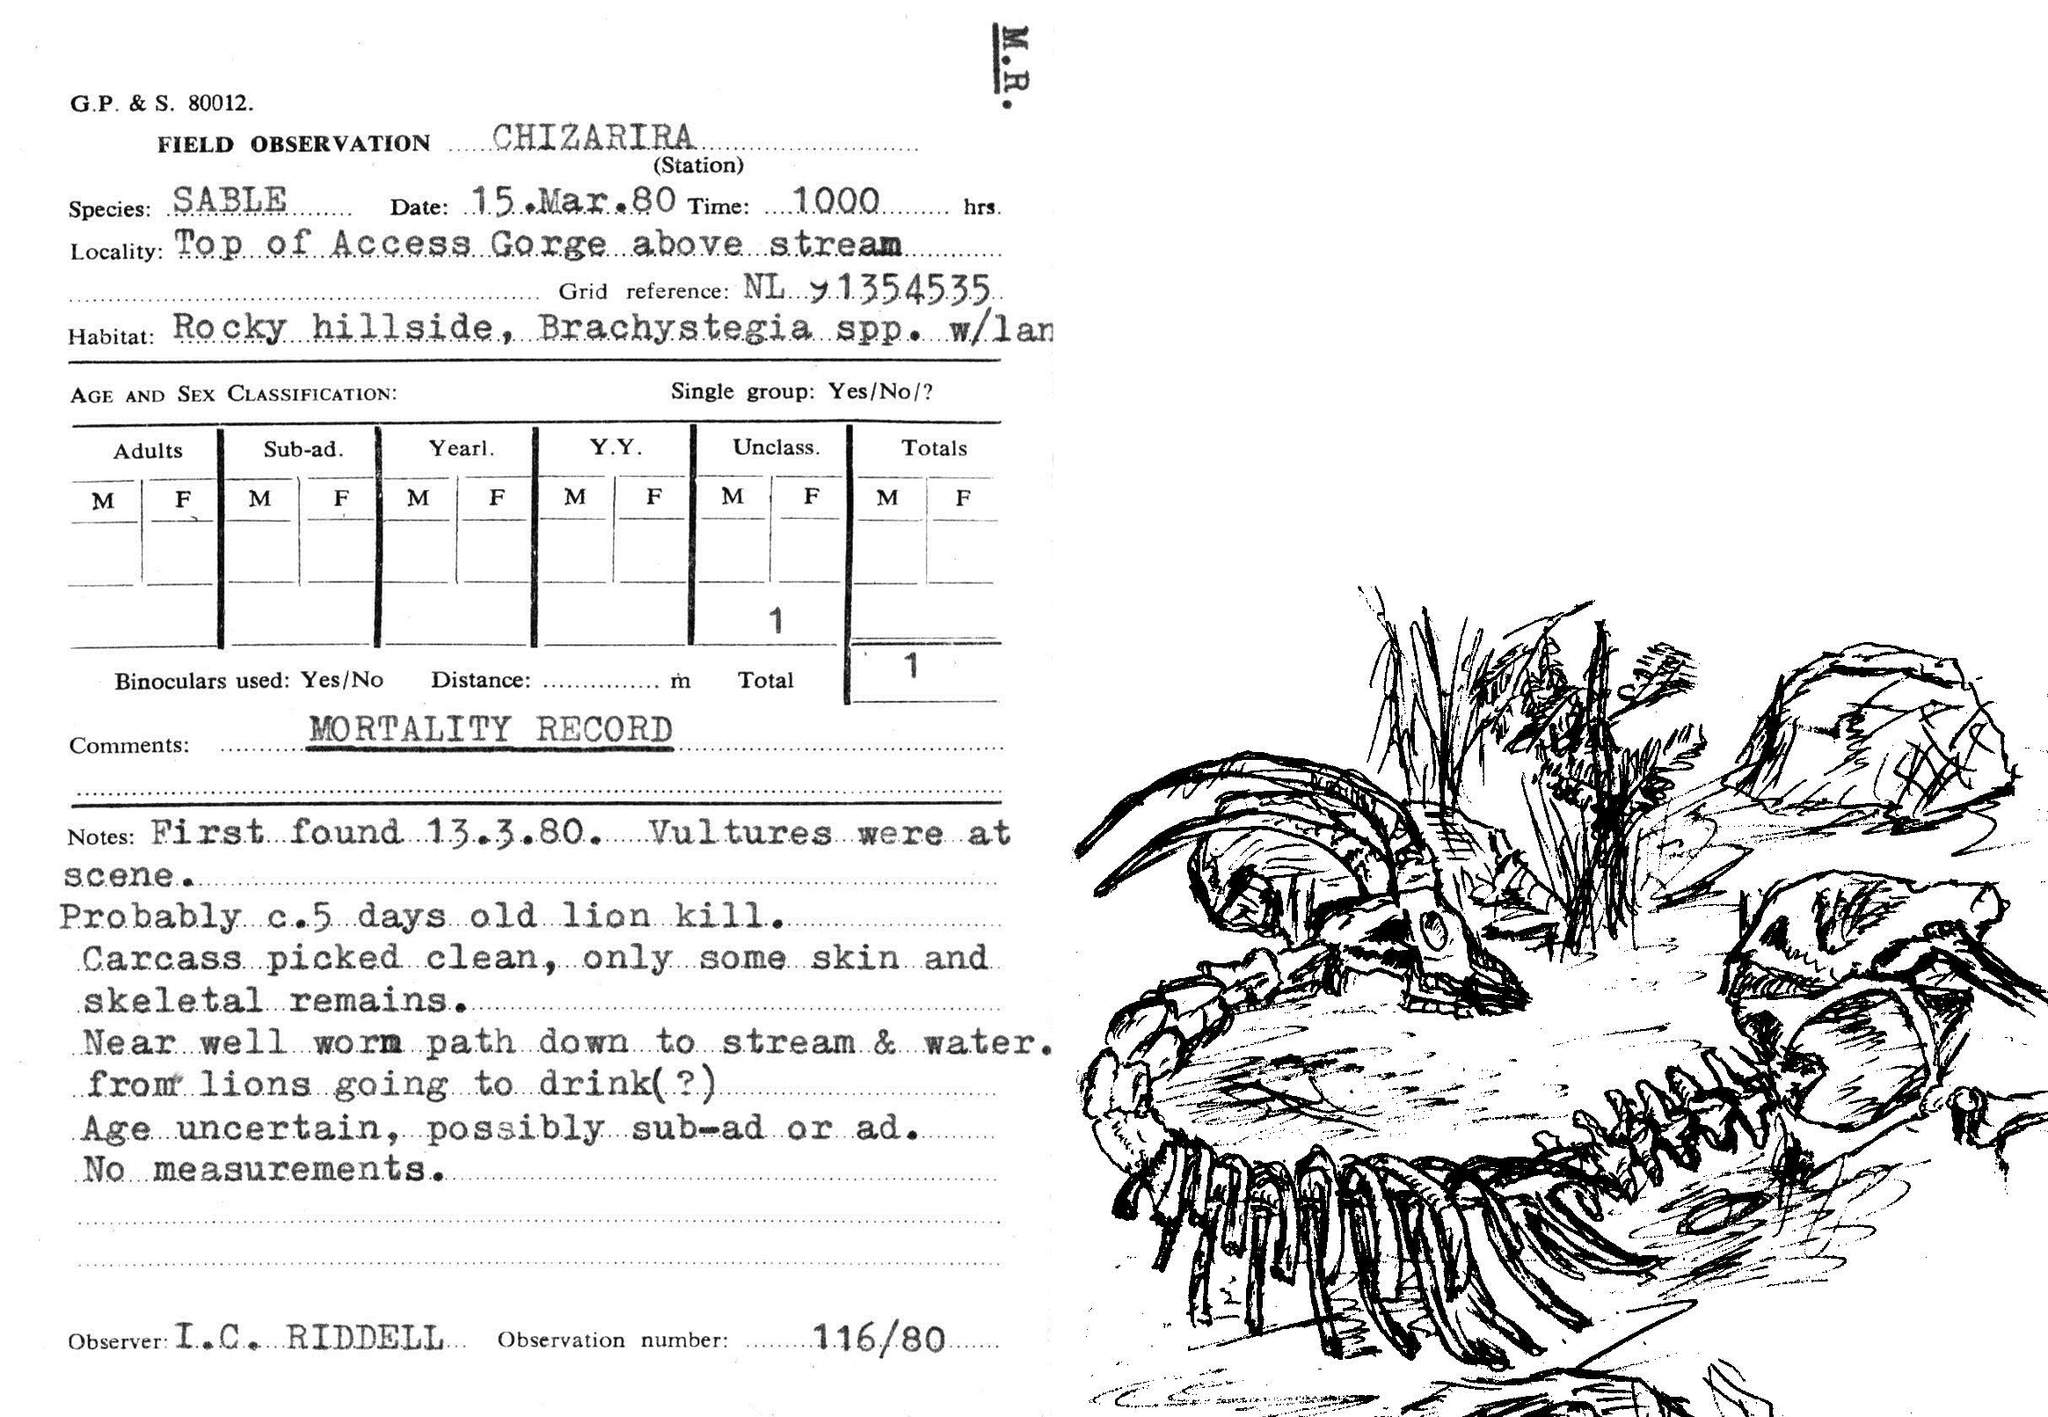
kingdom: Animalia
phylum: Chordata
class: Mammalia
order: Artiodactyla
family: Bovidae
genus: Hippotragus
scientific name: Hippotragus niger
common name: Sable antelope
